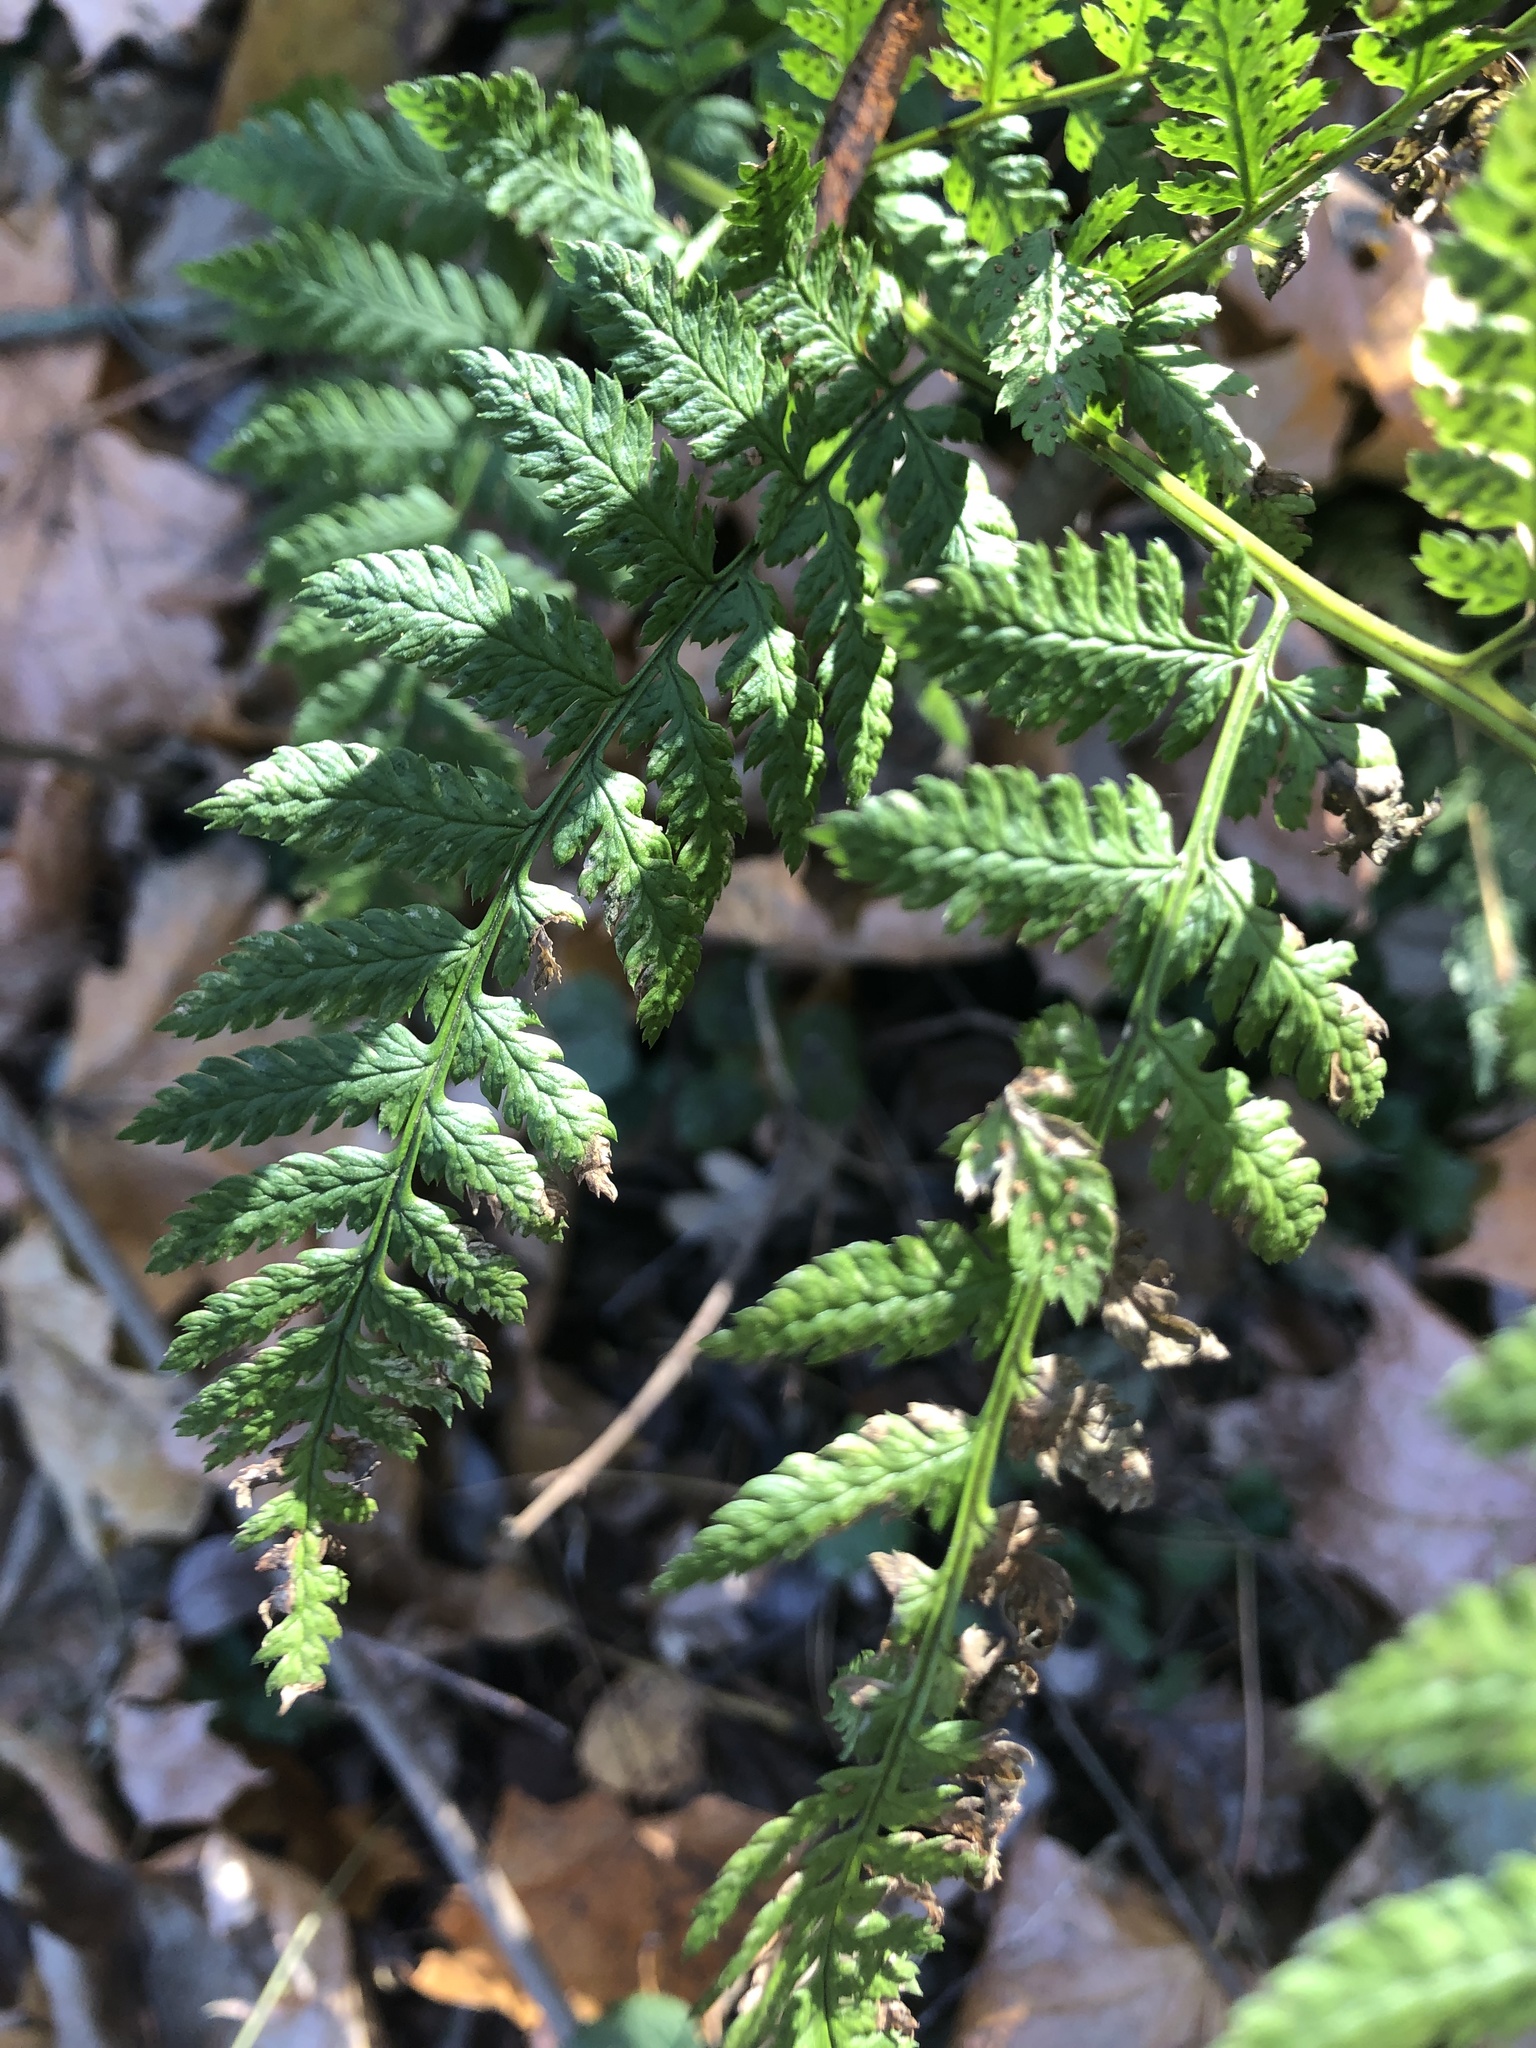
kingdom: Plantae
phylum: Tracheophyta
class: Polypodiopsida
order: Polypodiales
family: Dryopteridaceae
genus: Dryopteris
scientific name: Dryopteris carthusiana
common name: Narrow buckler-fern
